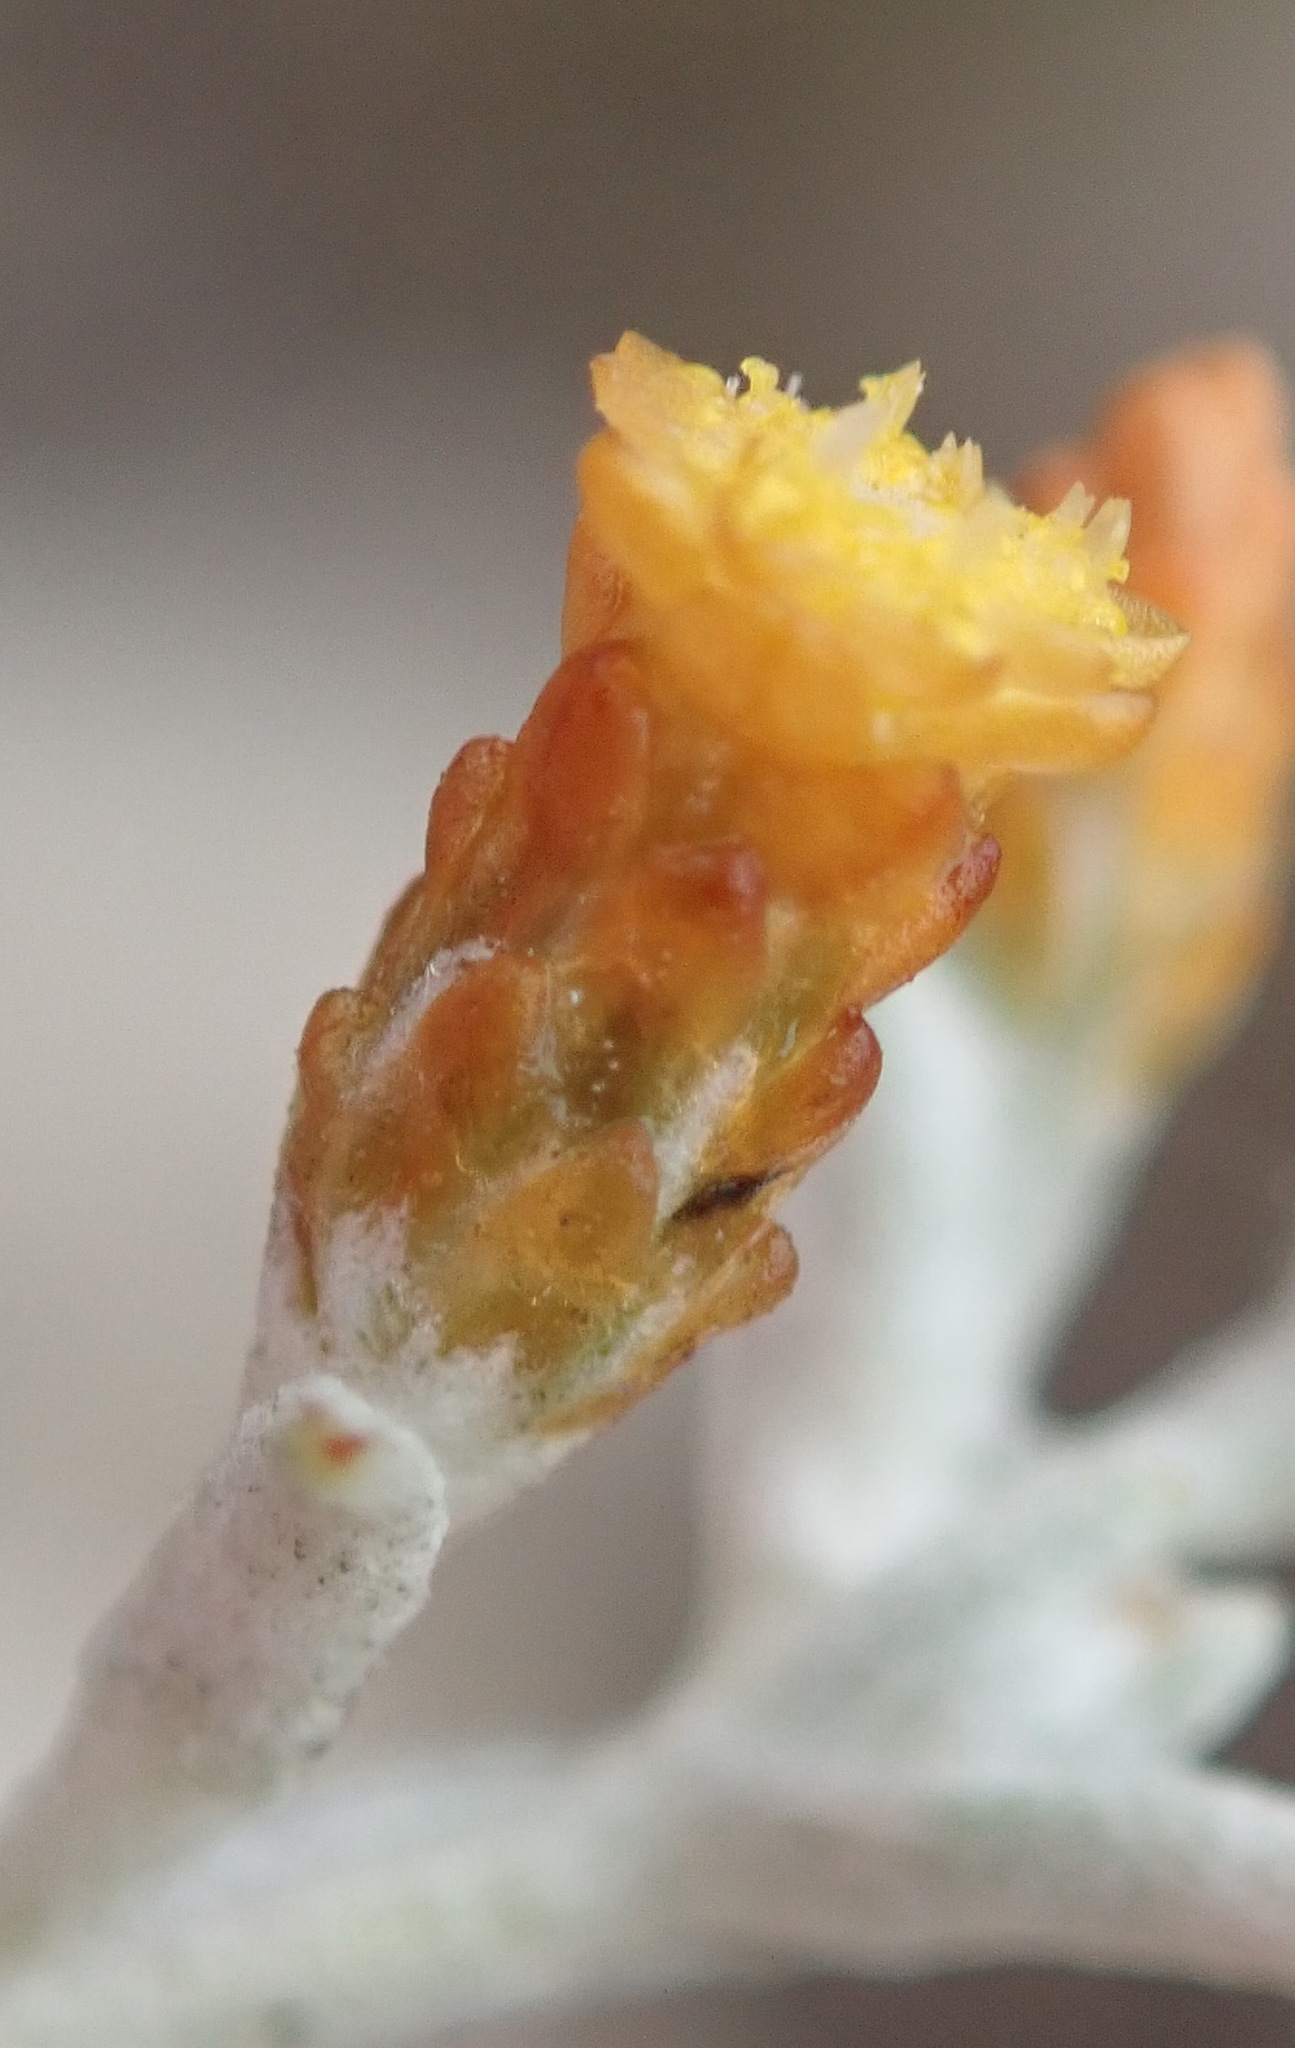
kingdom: Plantae
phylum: Tracheophyta
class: Magnoliopsida
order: Asterales
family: Asteraceae
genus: Helichrysum
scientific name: Helichrysum cylindriflorum
